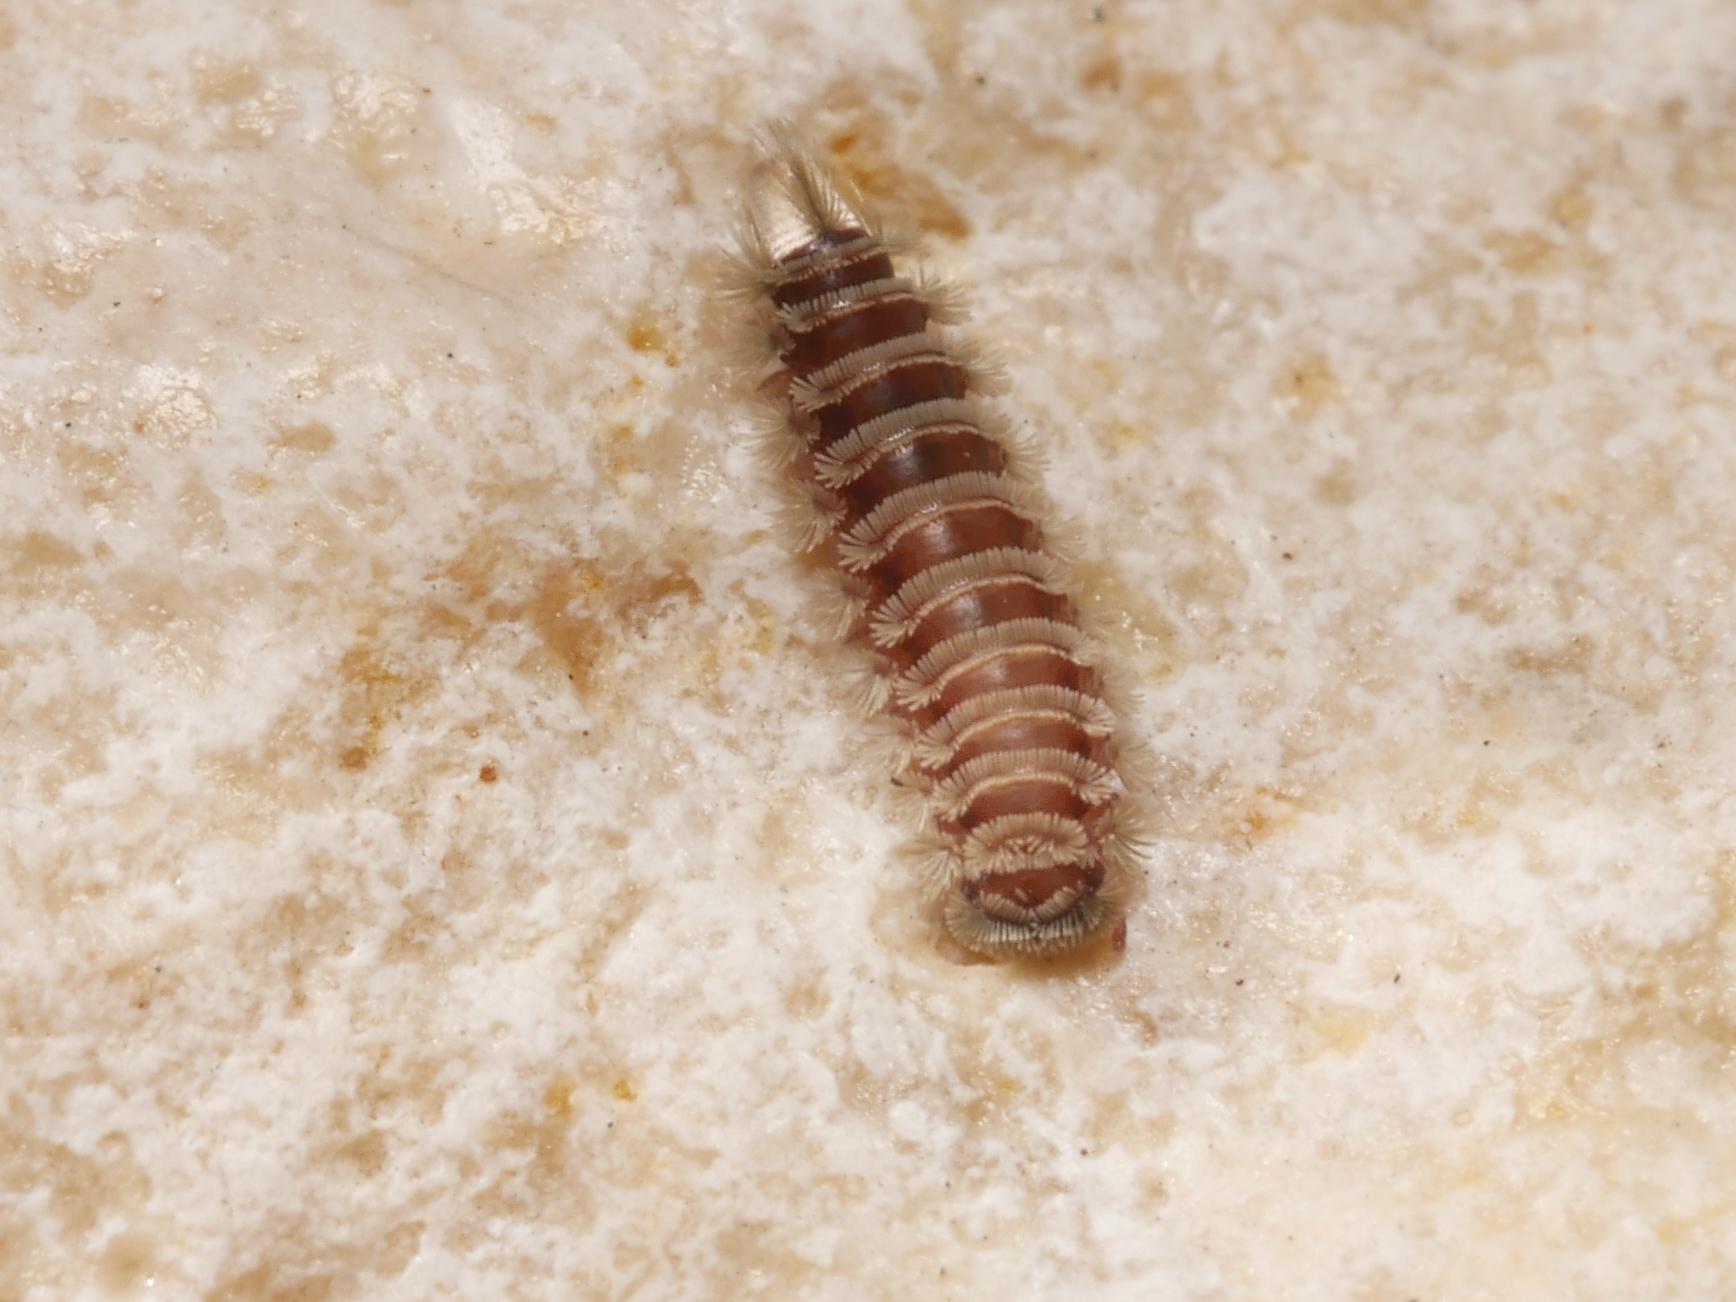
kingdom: Animalia
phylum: Arthropoda
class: Diplopoda
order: Polyxenida
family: Polyxenidae
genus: Polyxenus
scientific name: Polyxenus lagurus
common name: Bristly millipede
